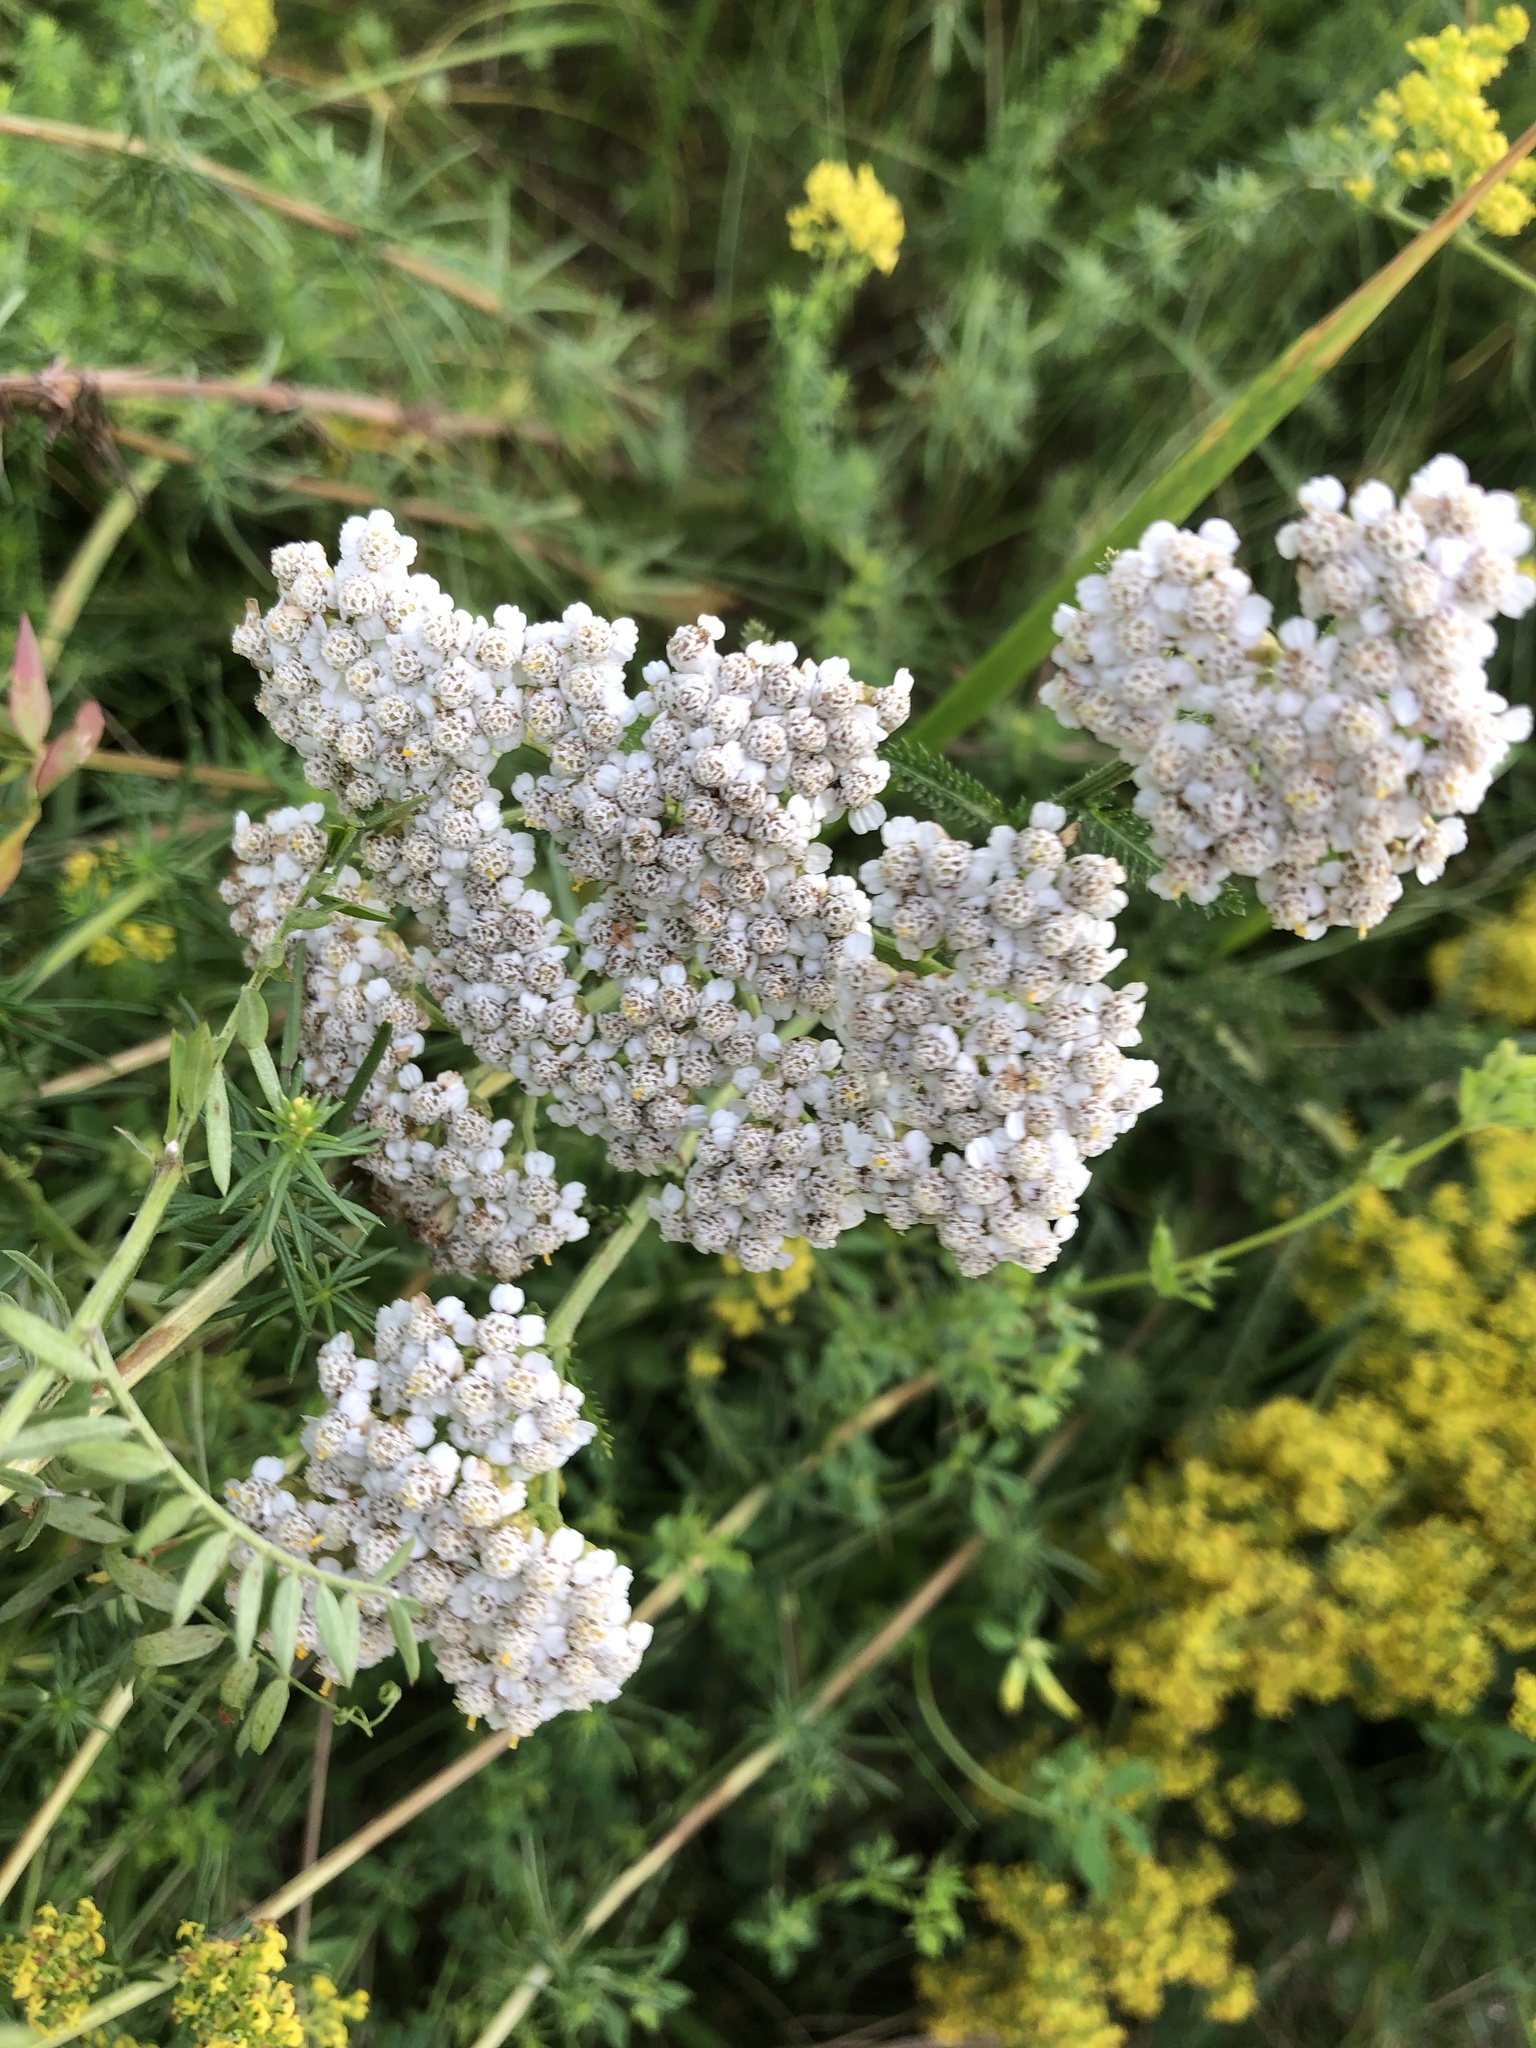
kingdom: Plantae
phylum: Tracheophyta
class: Magnoliopsida
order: Asterales
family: Asteraceae
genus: Achillea
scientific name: Achillea millefolium
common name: Yarrow
